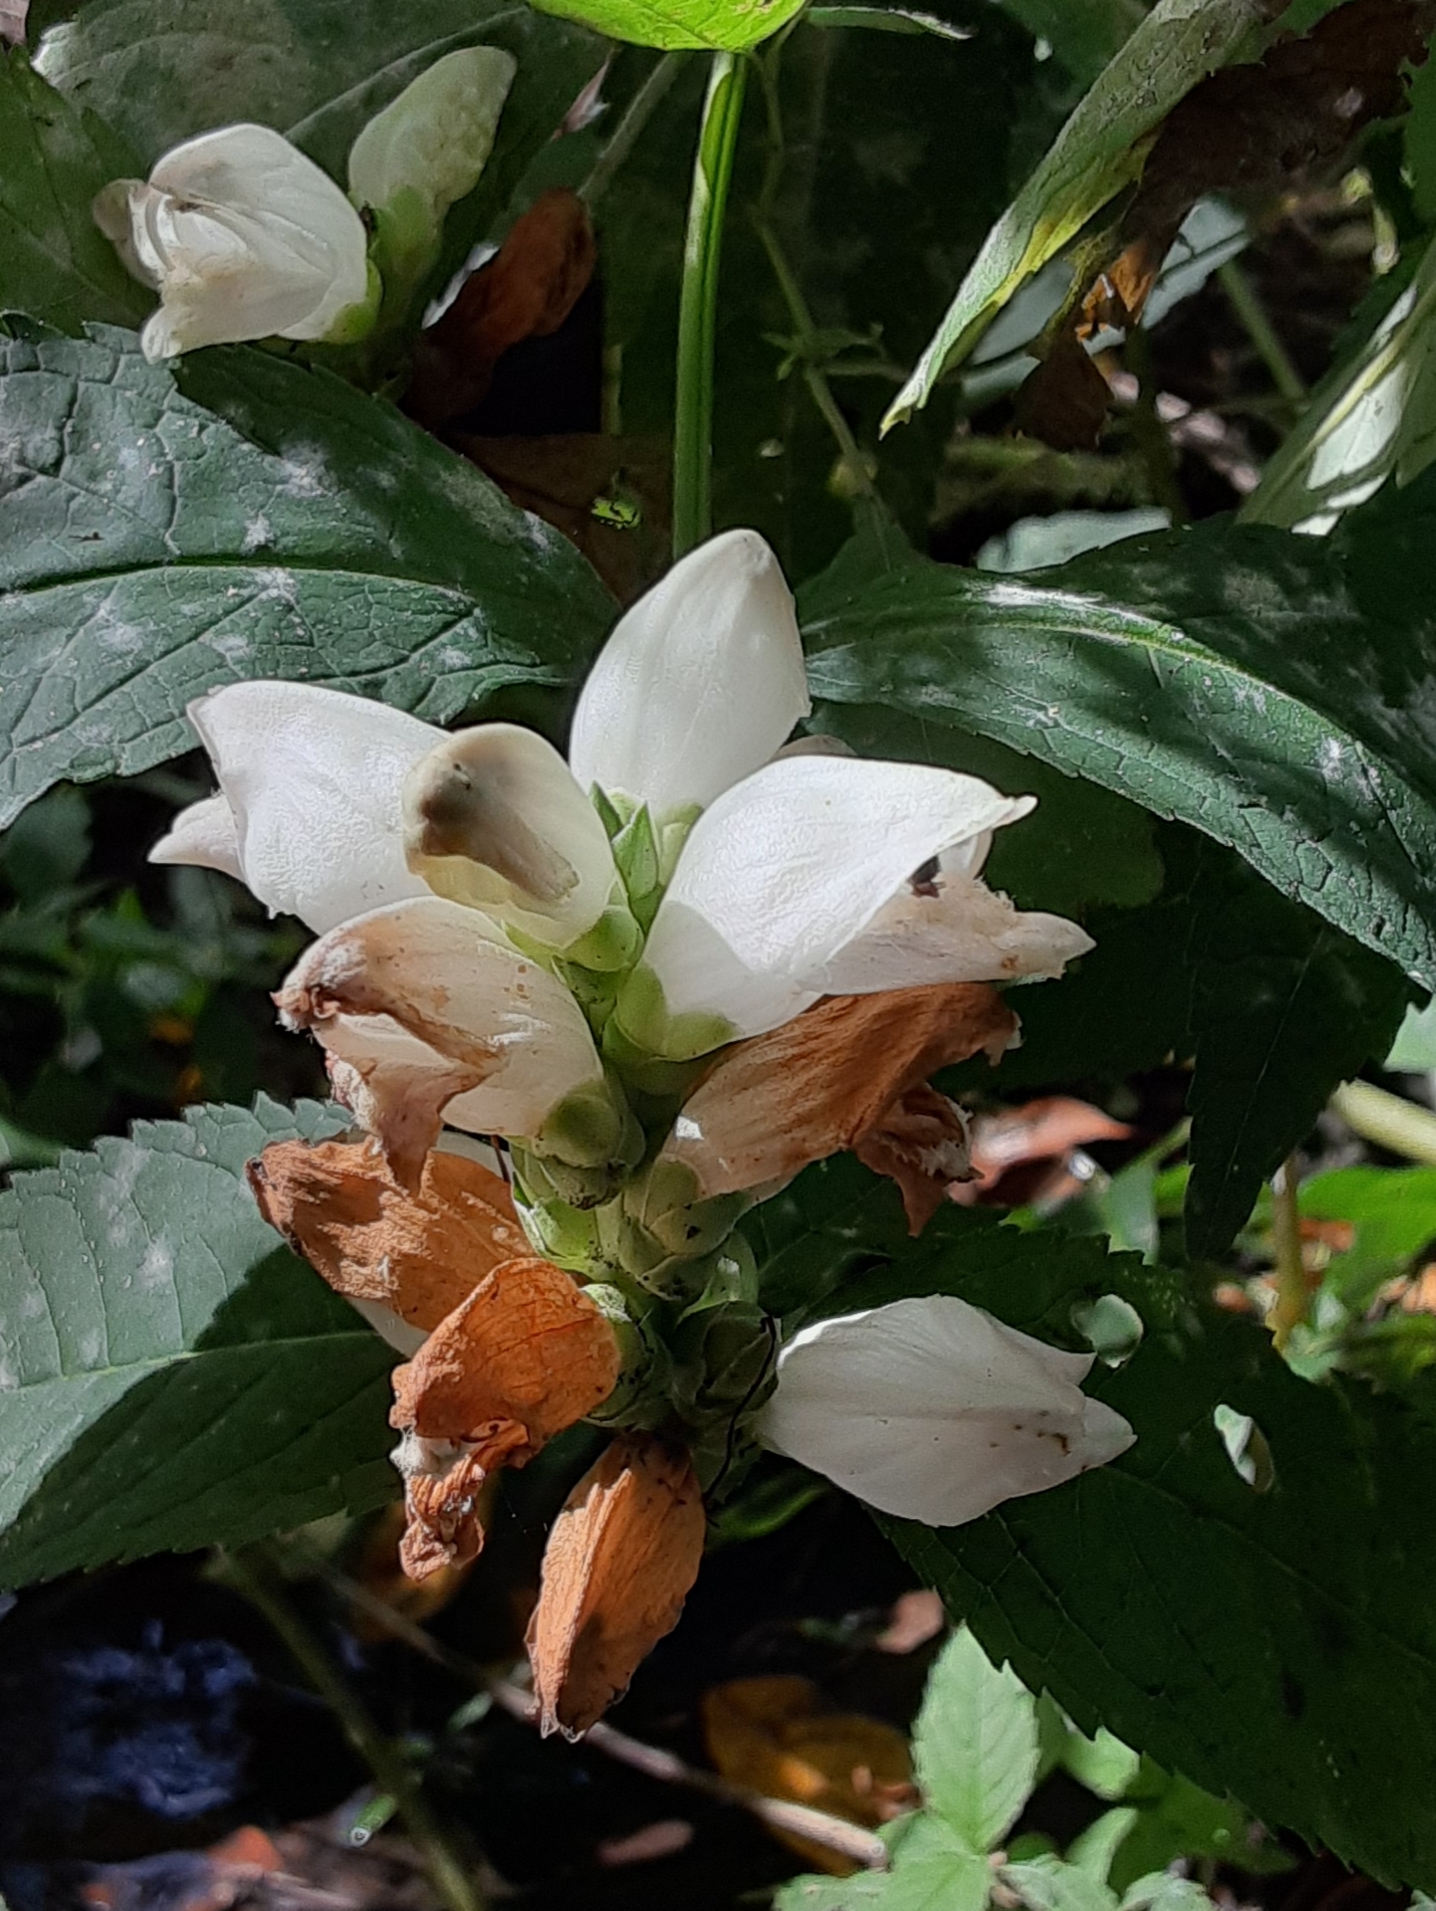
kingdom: Plantae
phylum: Tracheophyta
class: Magnoliopsida
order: Lamiales
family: Plantaginaceae
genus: Chelone
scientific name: Chelone glabra
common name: Snakehead
